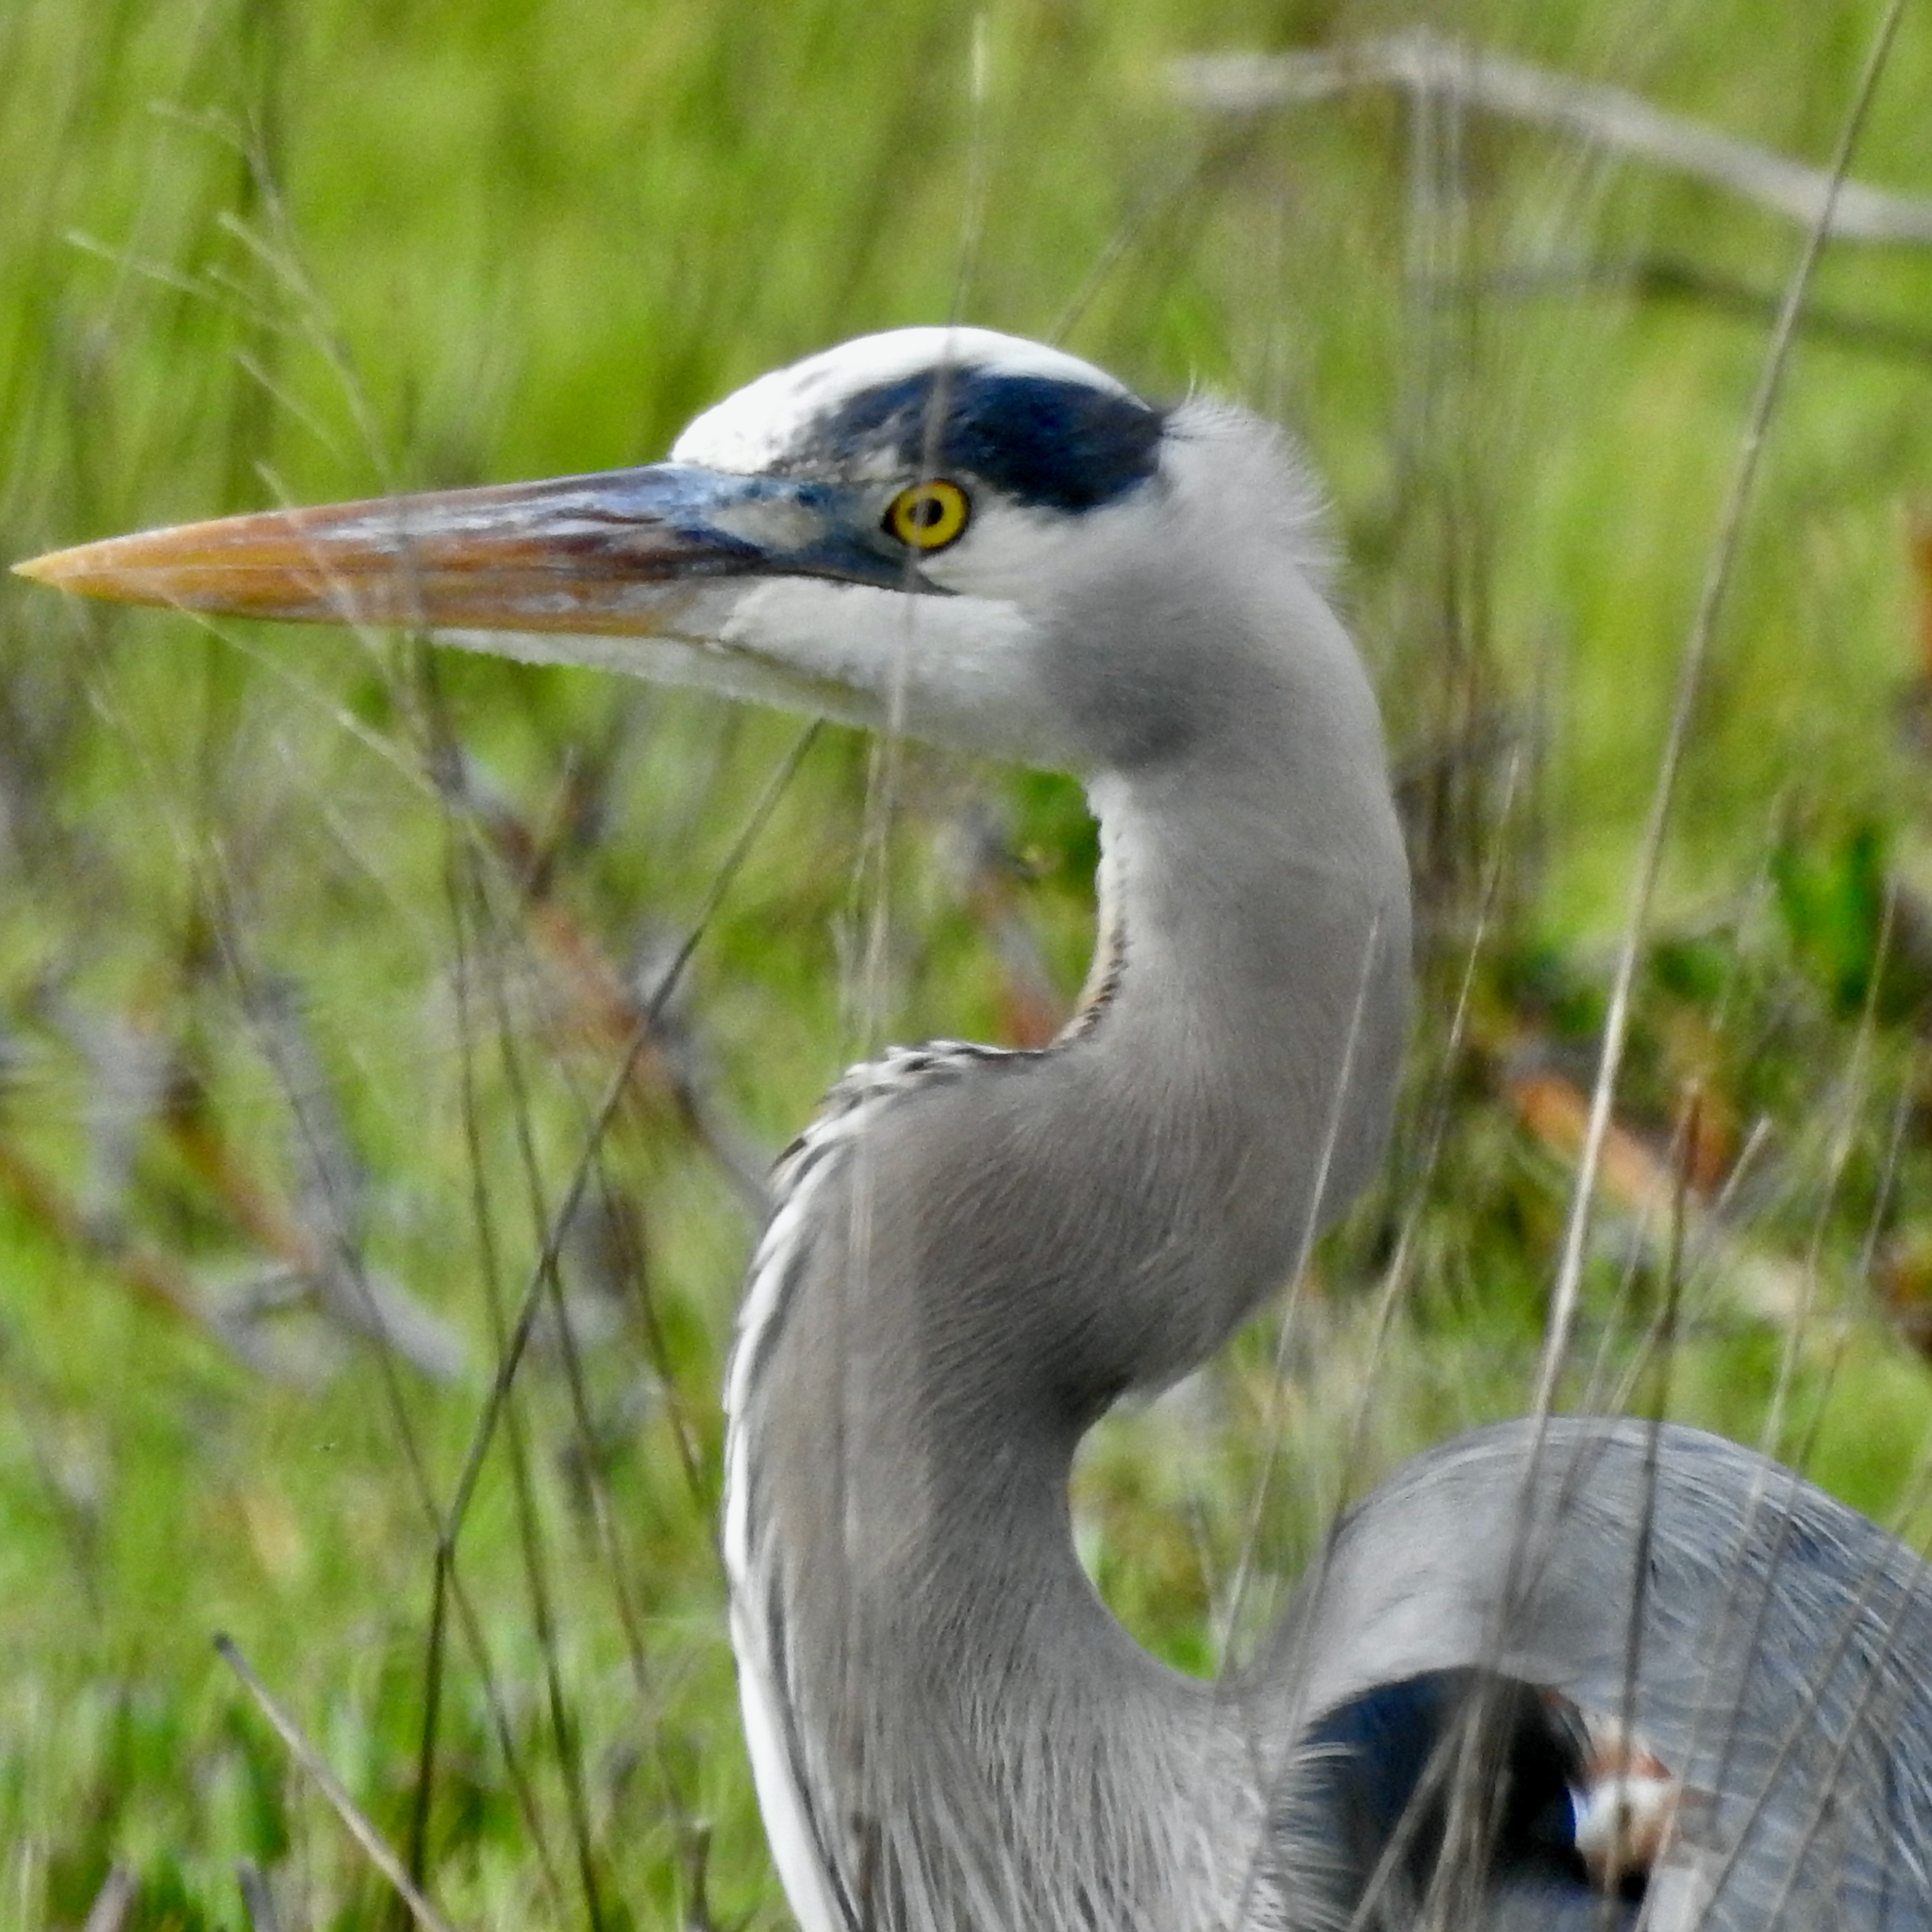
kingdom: Animalia
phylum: Chordata
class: Aves
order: Pelecaniformes
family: Ardeidae
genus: Ardea
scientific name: Ardea herodias
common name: Great blue heron
